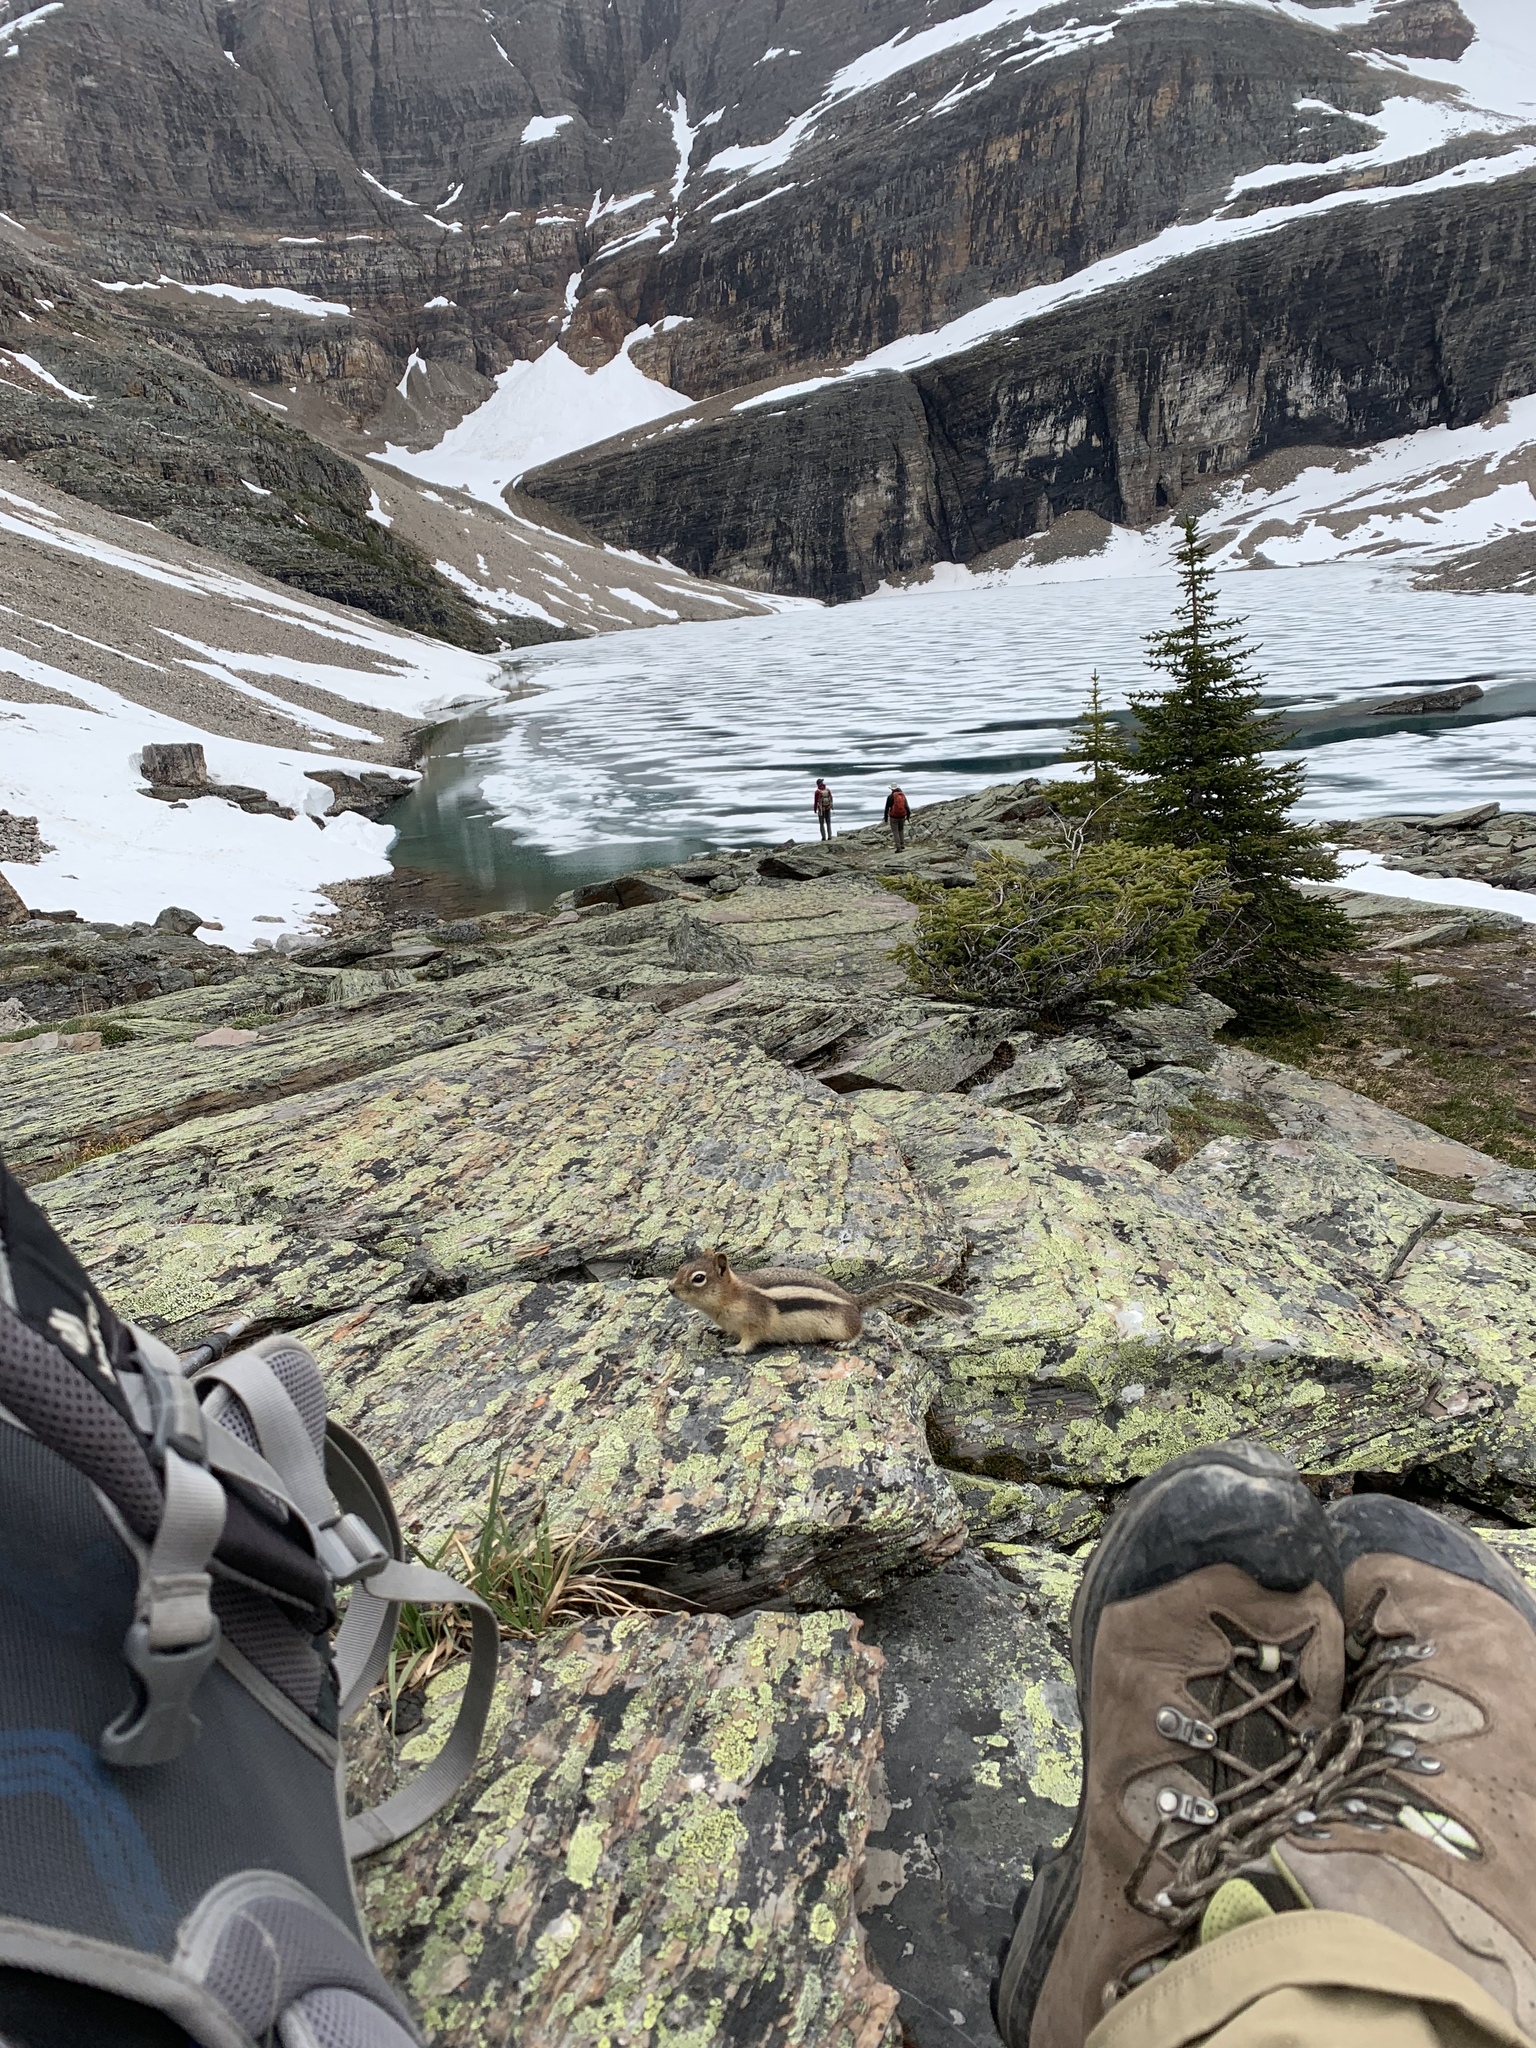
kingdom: Animalia
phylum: Chordata
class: Mammalia
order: Rodentia
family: Sciuridae
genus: Callospermophilus
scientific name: Callospermophilus lateralis
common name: Golden-mantled ground squirrel
